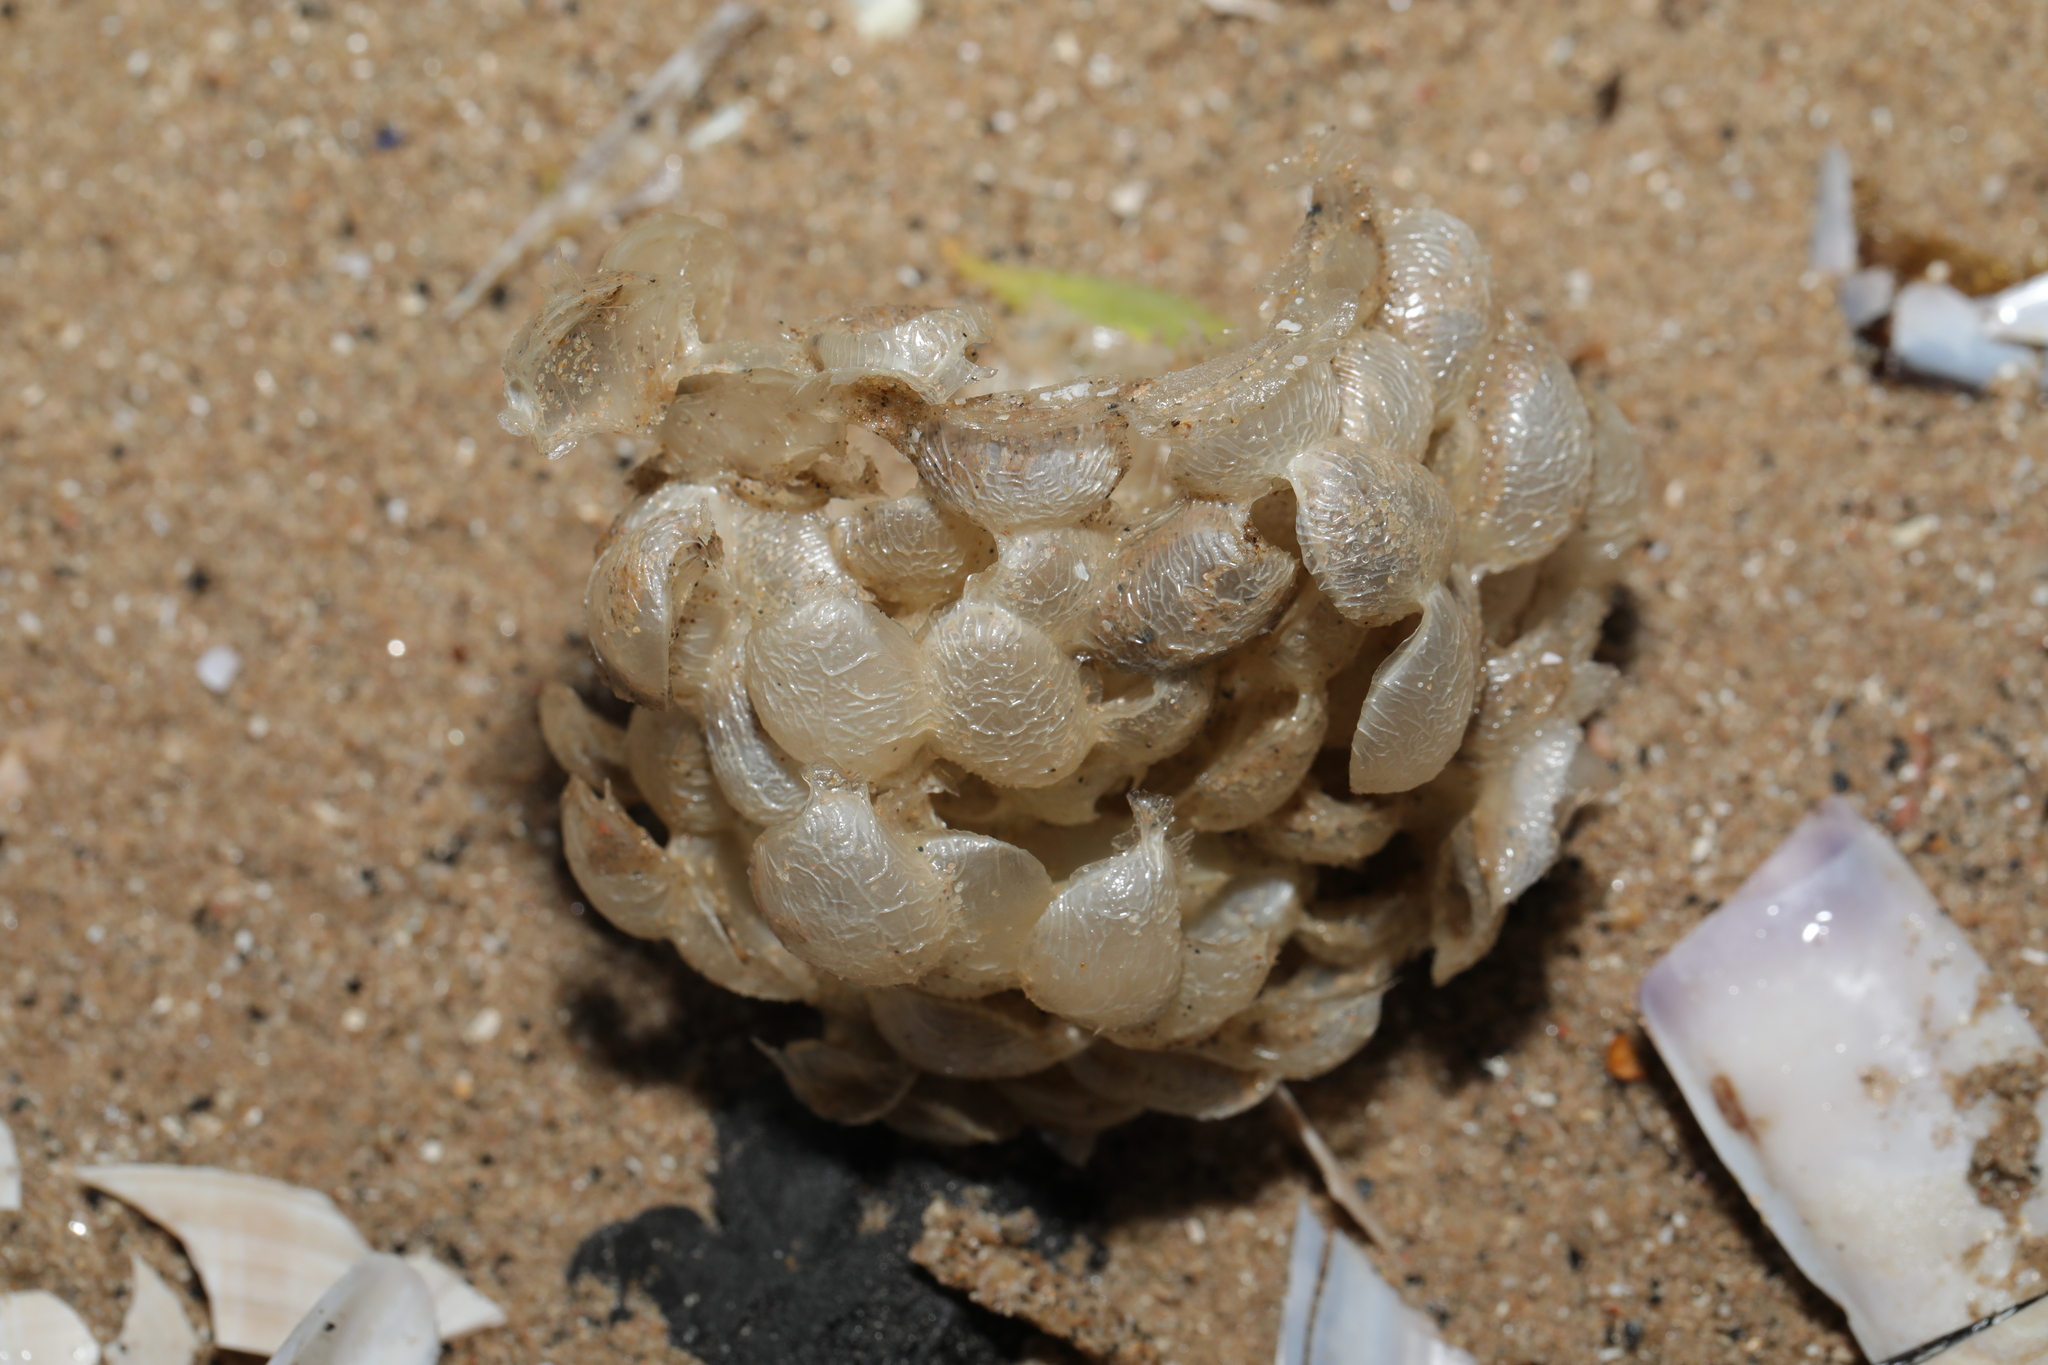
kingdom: Animalia
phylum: Mollusca
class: Gastropoda
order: Neogastropoda
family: Buccinidae
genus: Buccinum
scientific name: Buccinum undatum
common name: Common whelk
